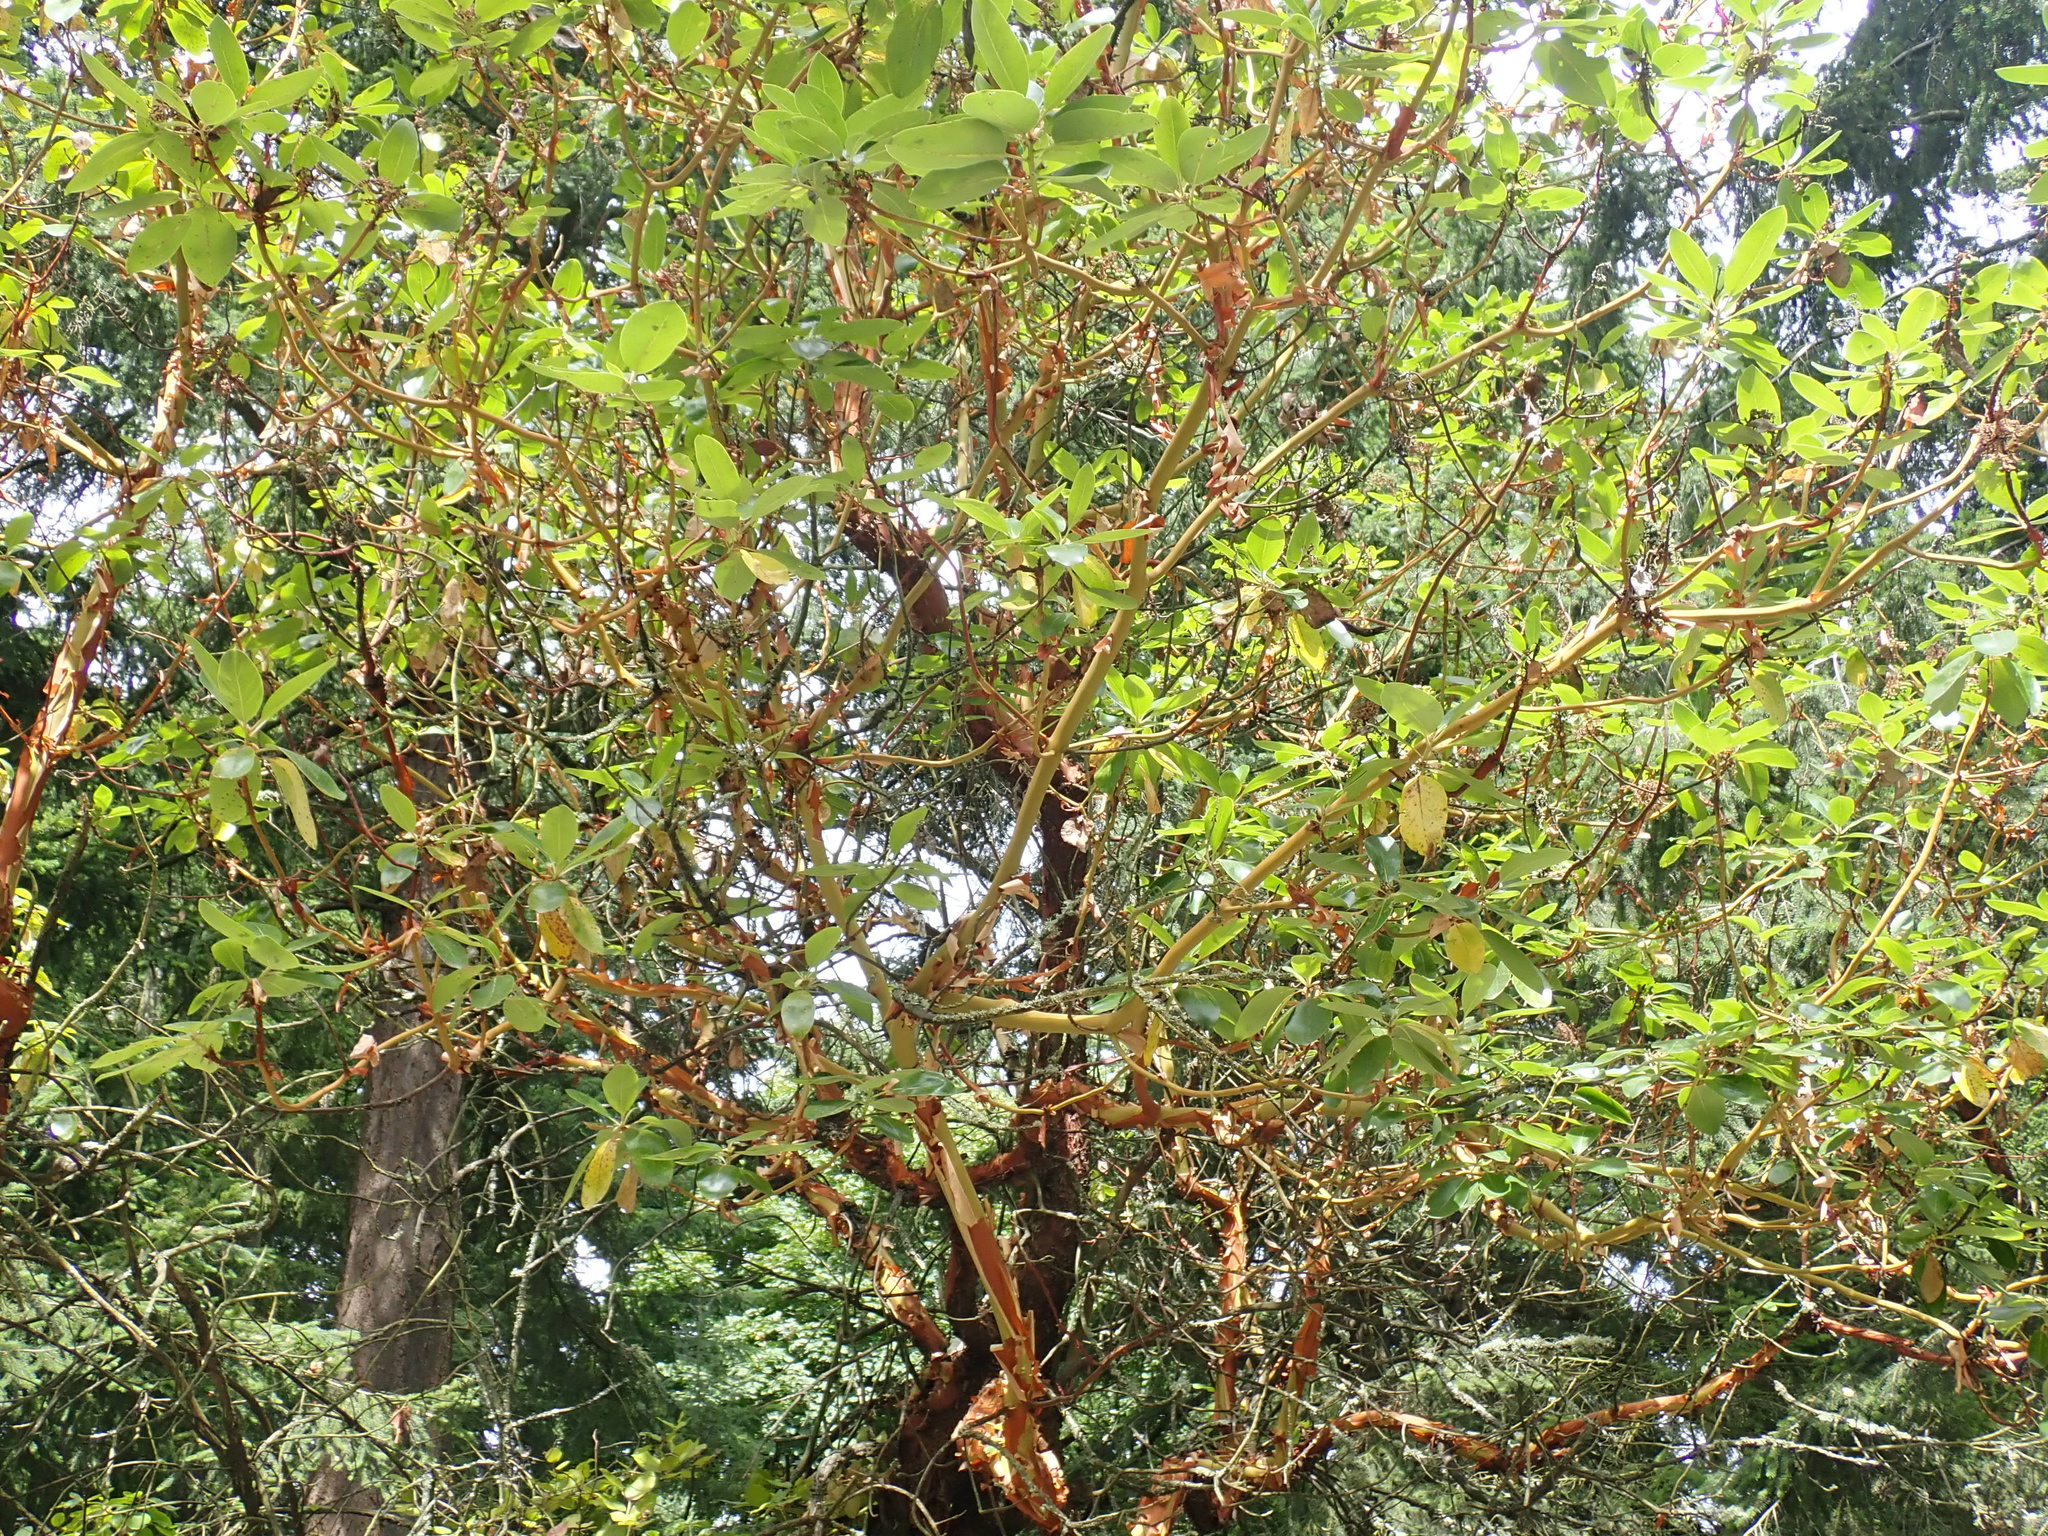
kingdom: Plantae
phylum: Tracheophyta
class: Magnoliopsida
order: Ericales
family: Ericaceae
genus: Arbutus
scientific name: Arbutus menziesii
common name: Pacific madrone
